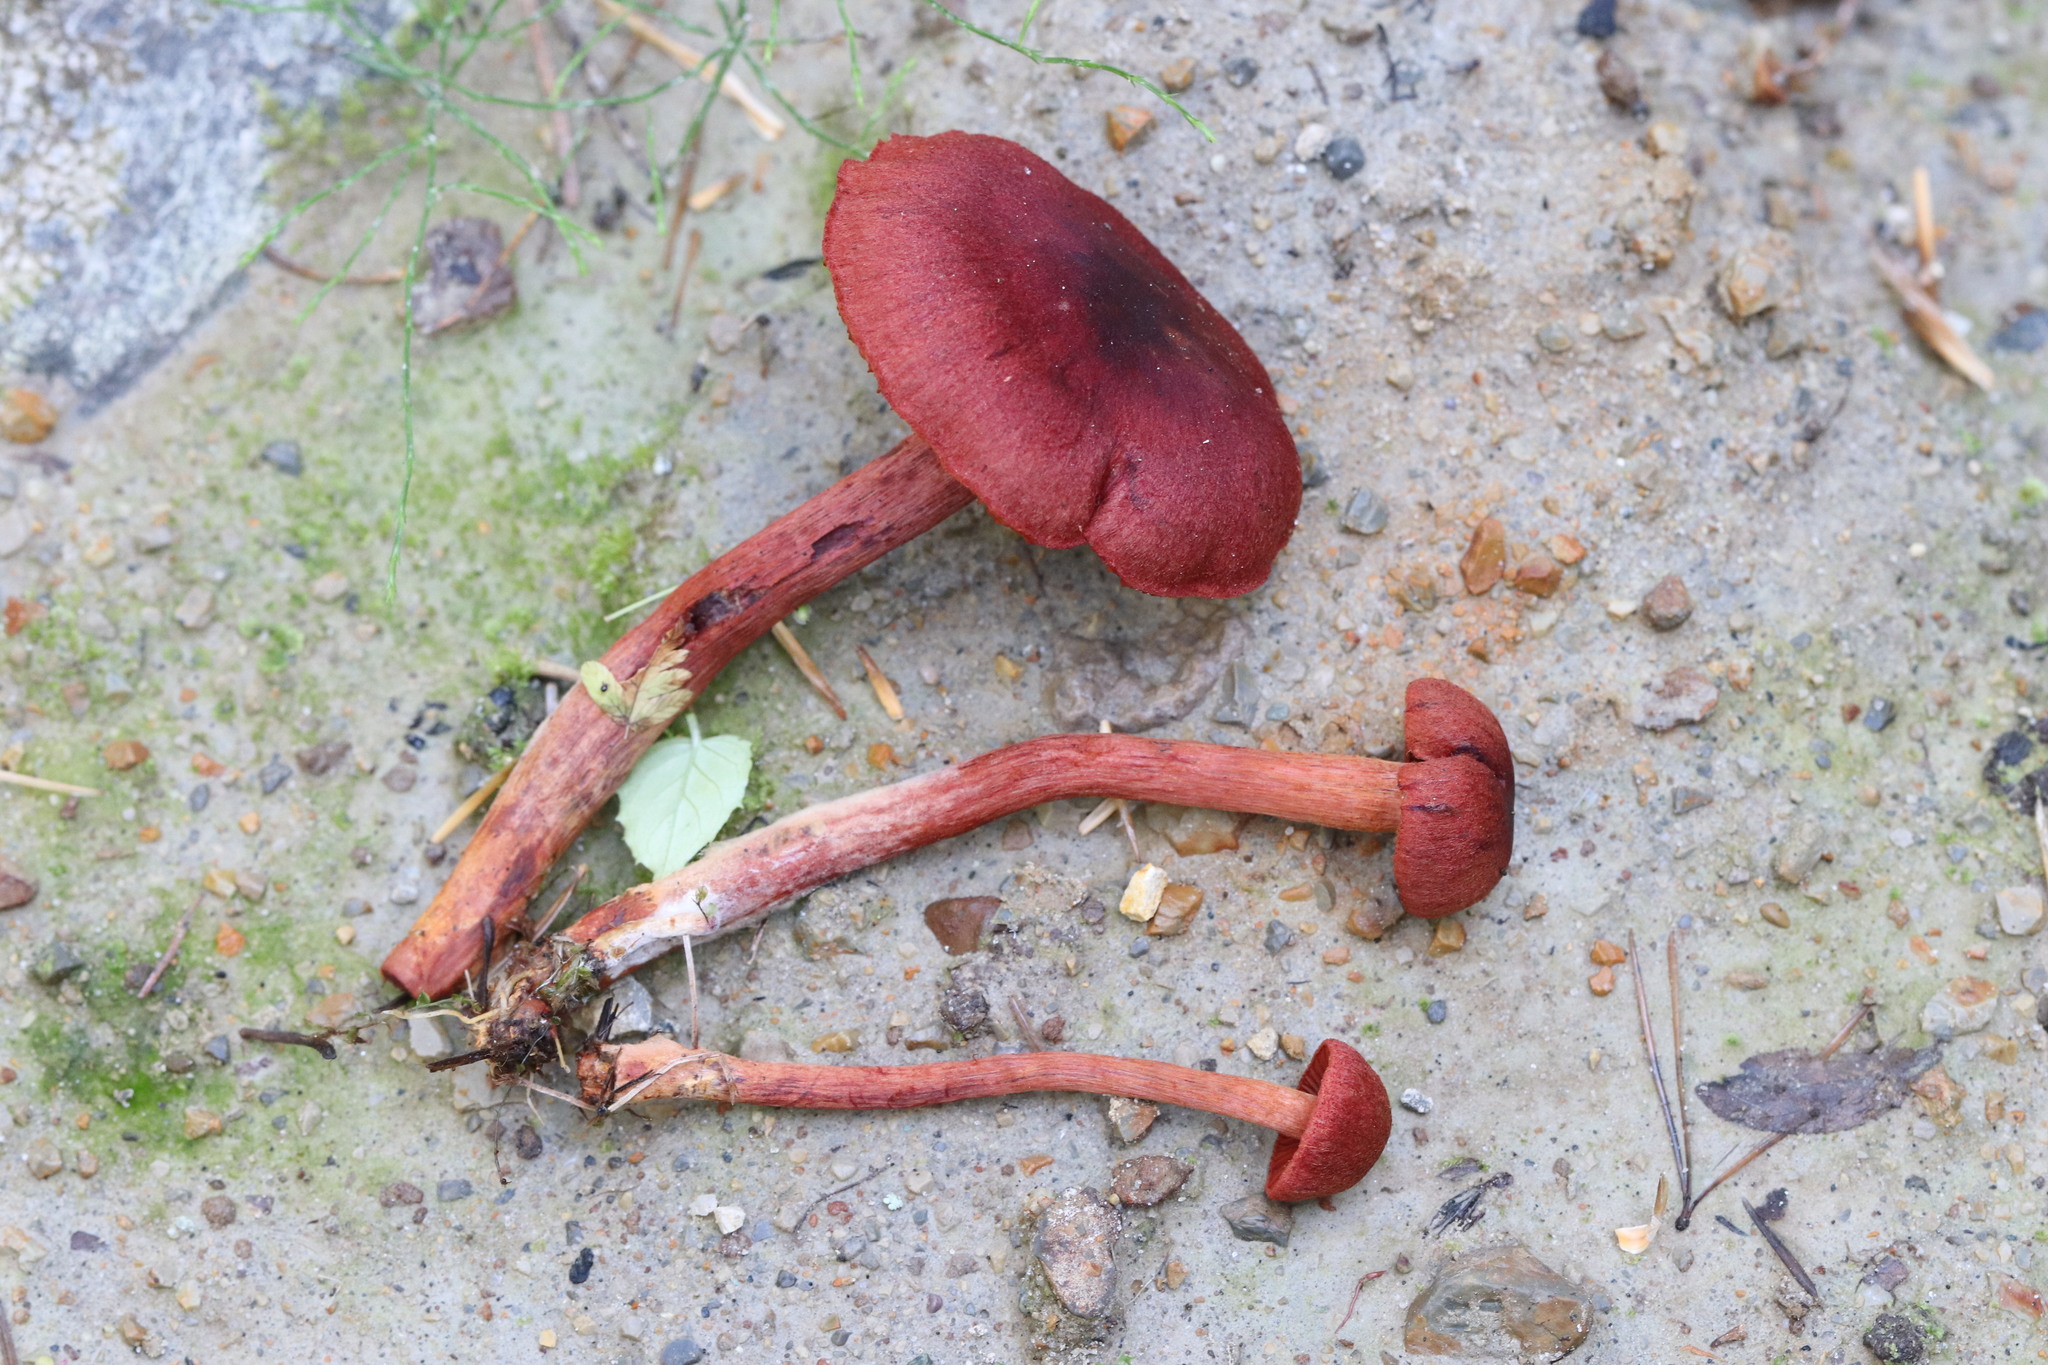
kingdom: Fungi
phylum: Basidiomycota
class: Agaricomycetes
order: Agaricales
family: Cortinariaceae
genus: Cortinarius
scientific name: Cortinarius sanguineus
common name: Bloodred webcap
